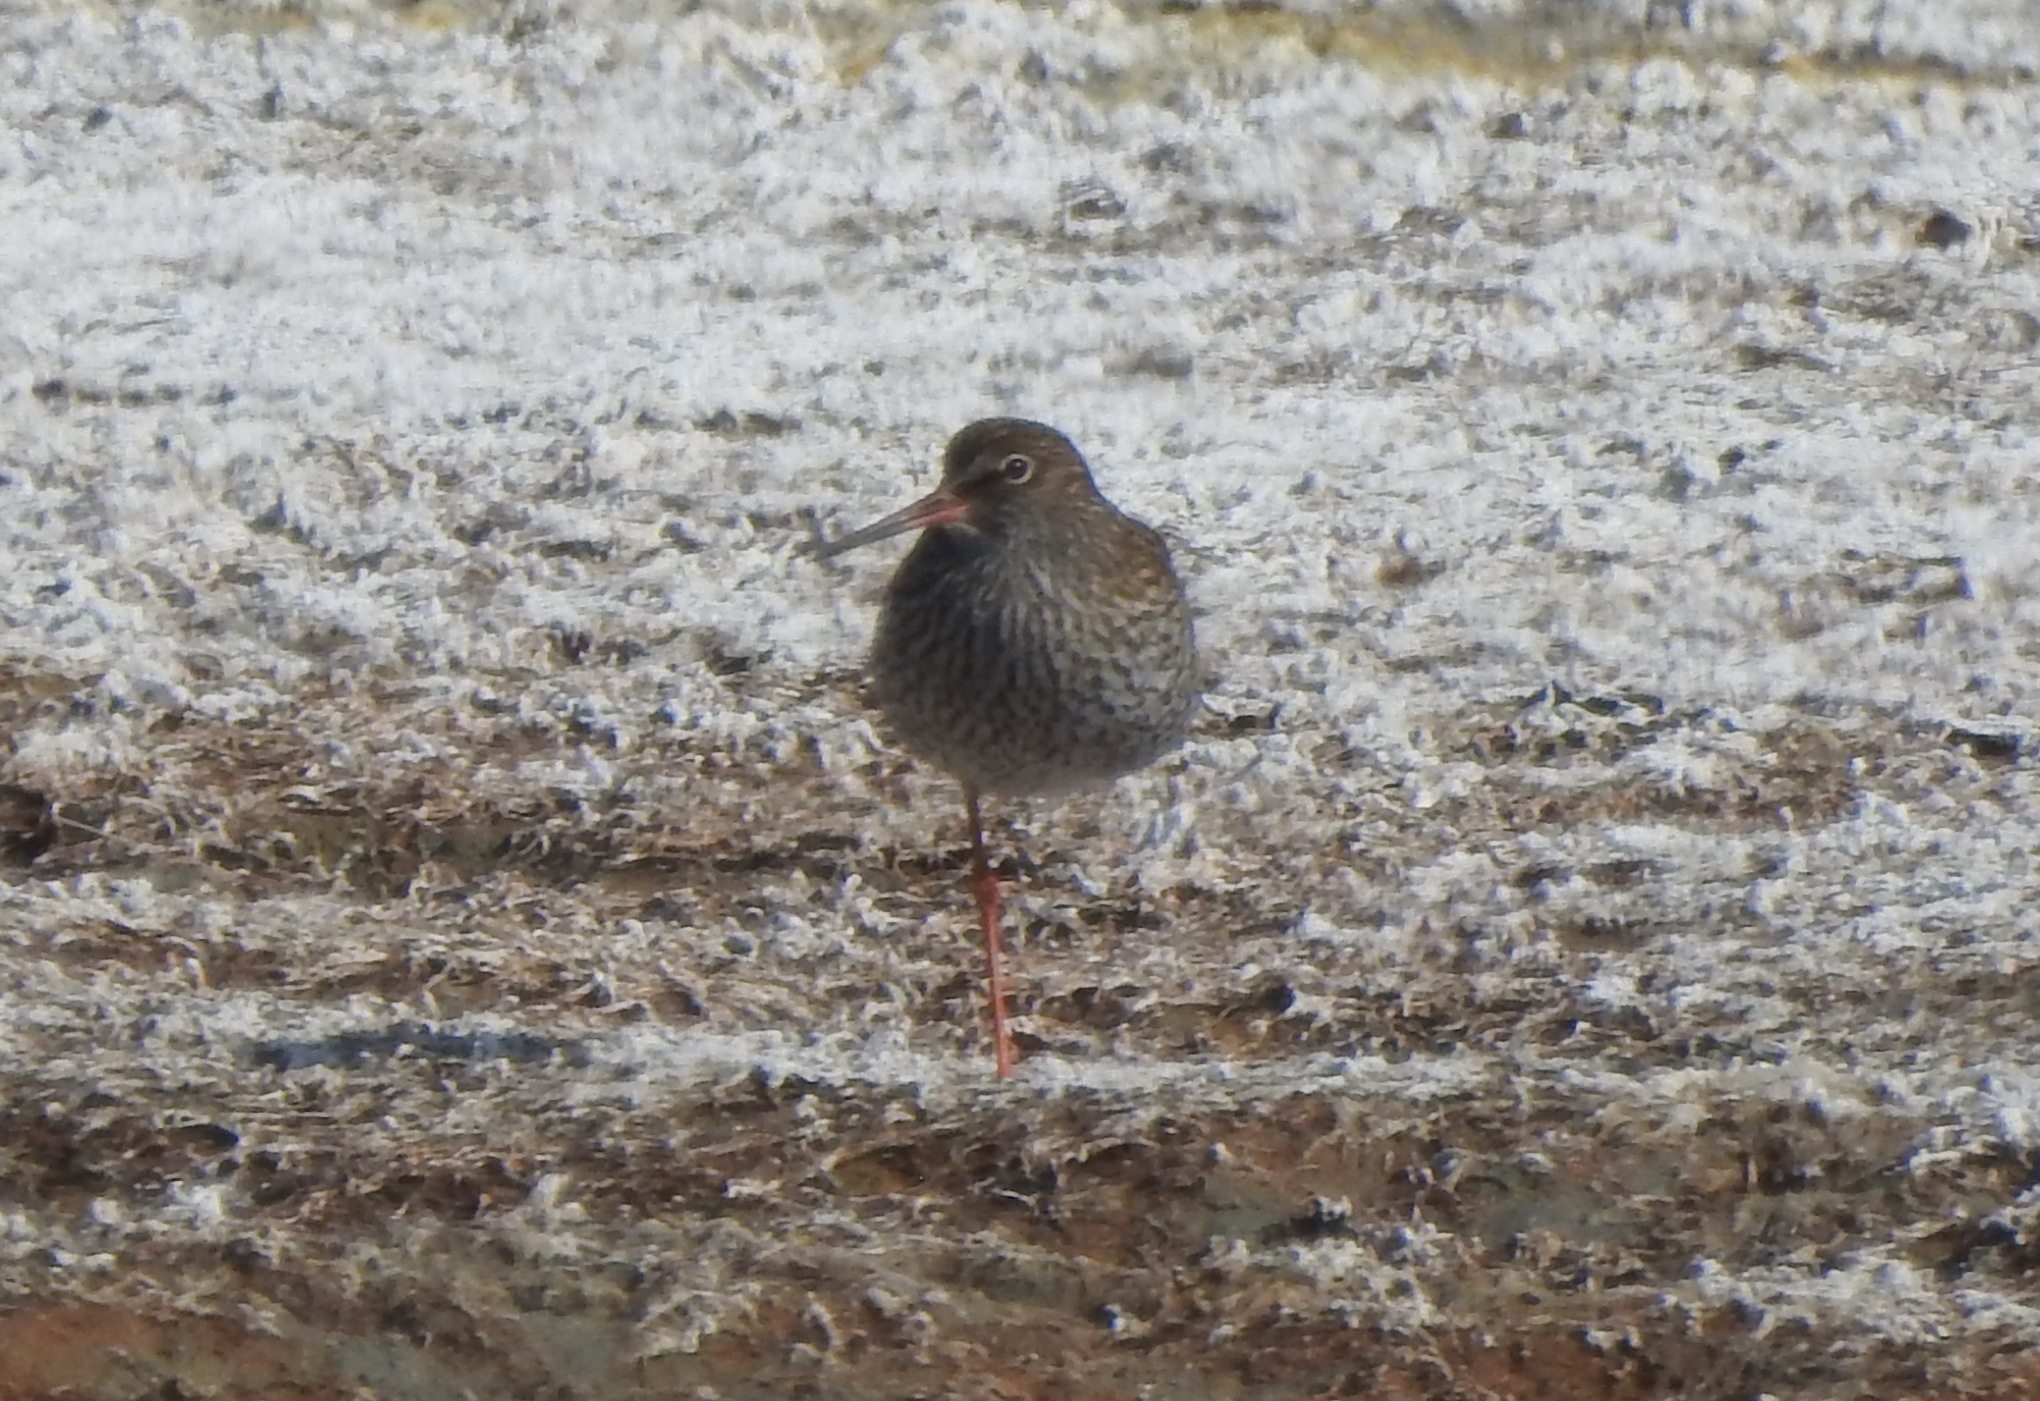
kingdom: Animalia
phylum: Chordata
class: Aves
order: Charadriiformes
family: Scolopacidae
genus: Tringa
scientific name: Tringa totanus
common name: Common redshank
